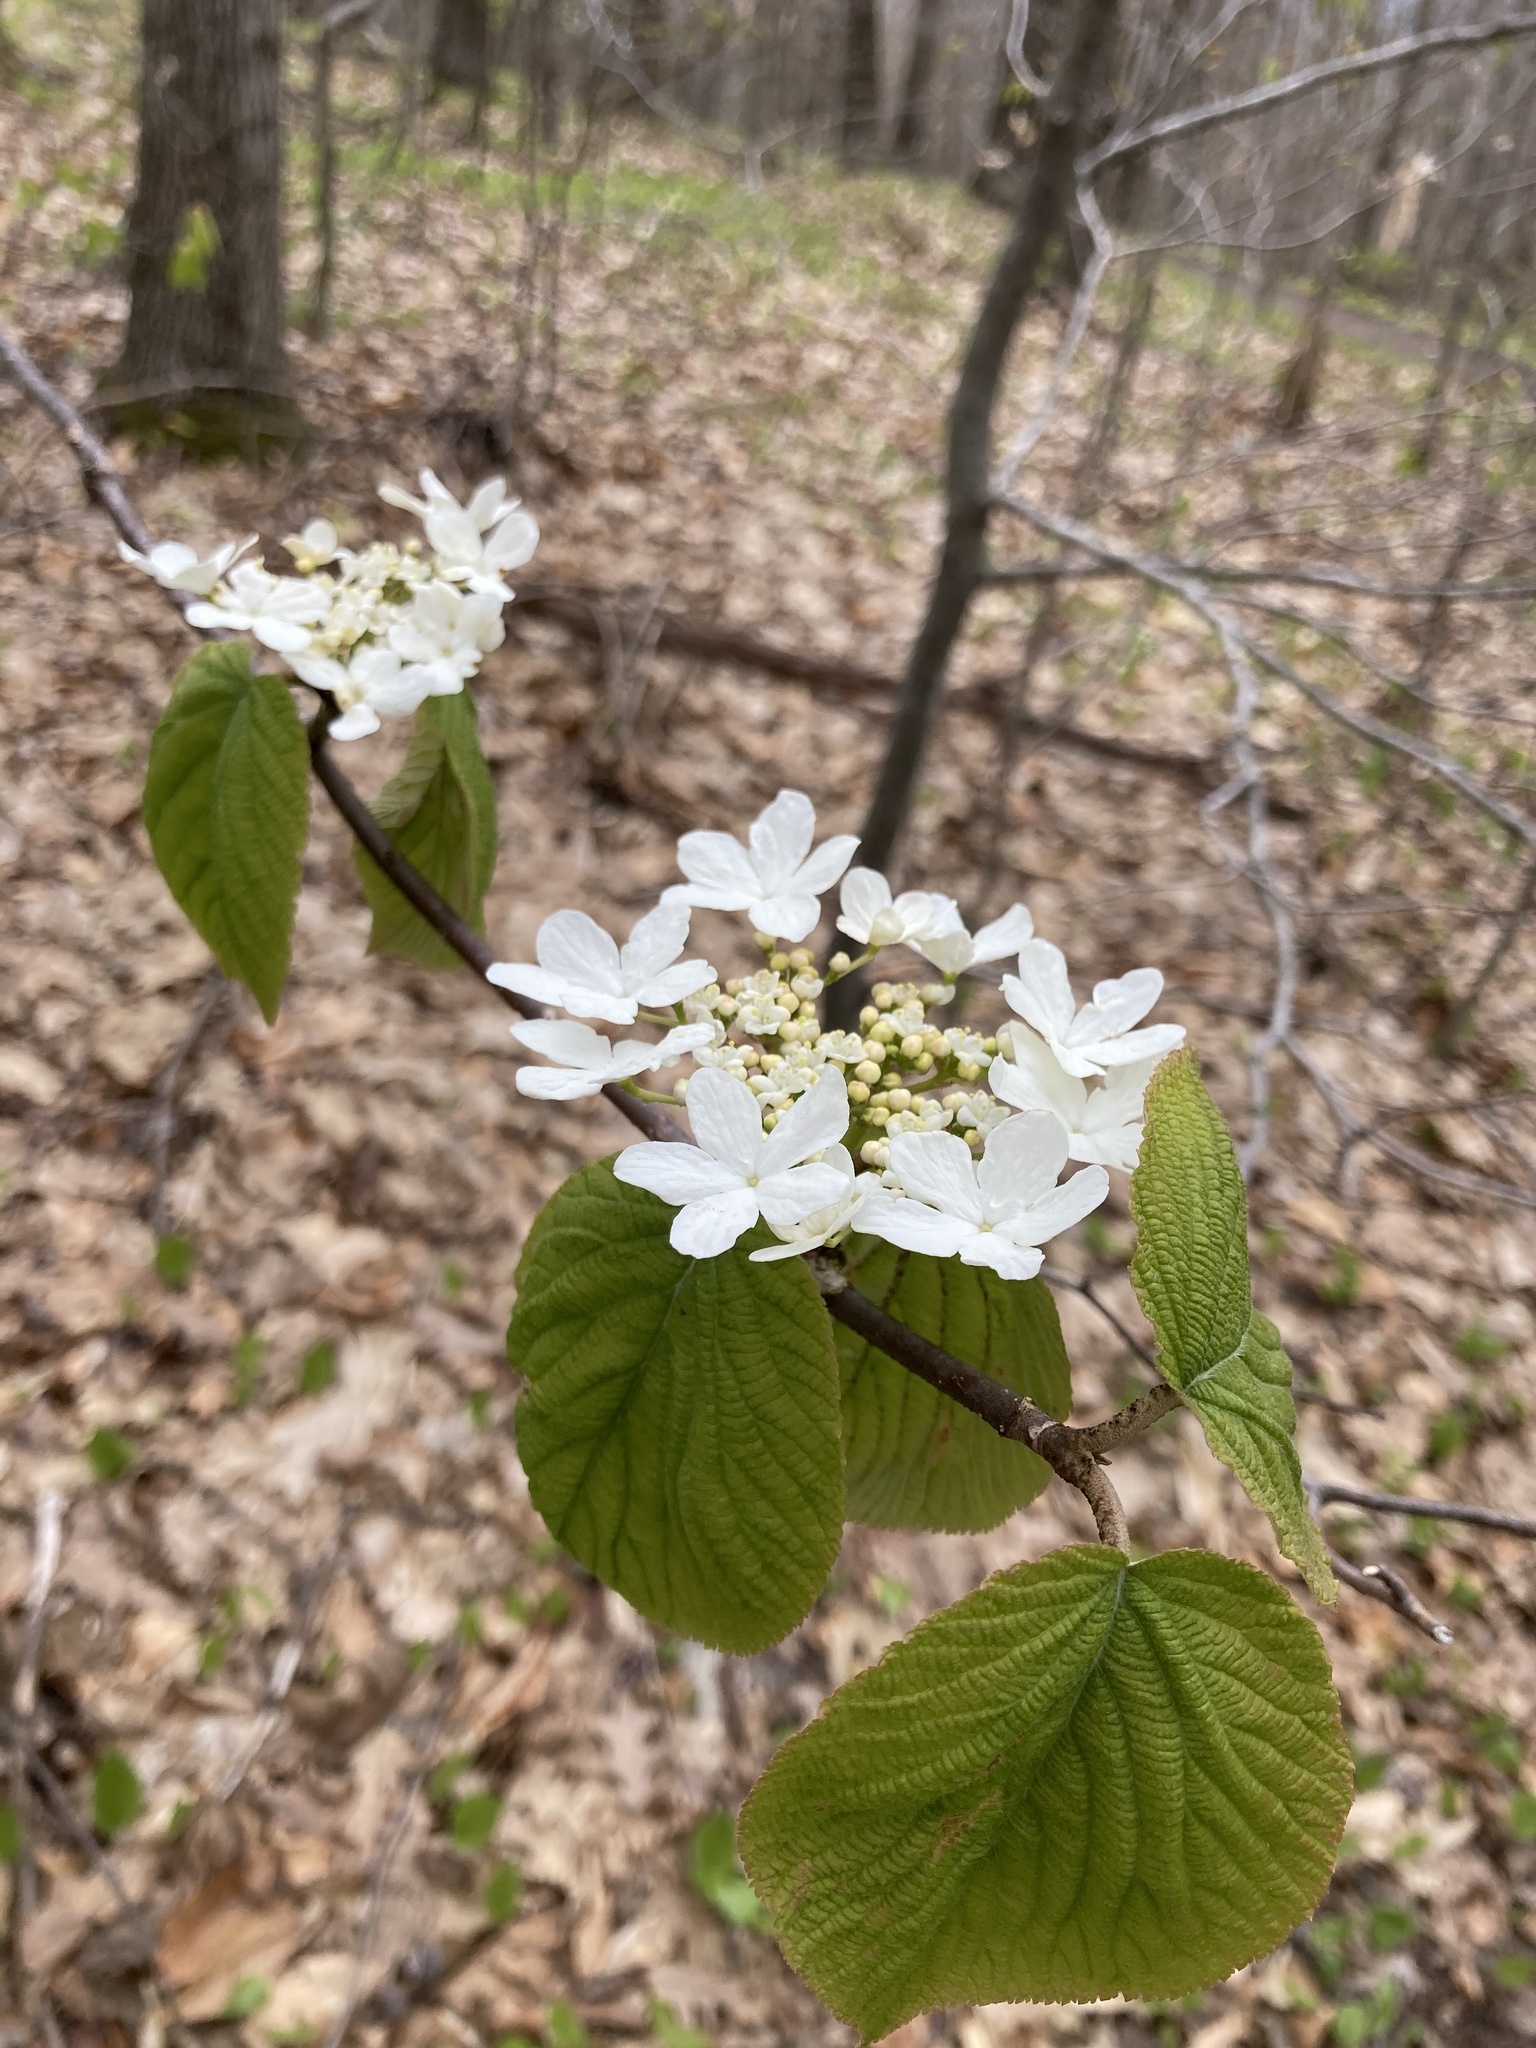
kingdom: Plantae
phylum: Tracheophyta
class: Magnoliopsida
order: Dipsacales
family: Viburnaceae
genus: Viburnum
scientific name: Viburnum lantanoides
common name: Hobblebush
